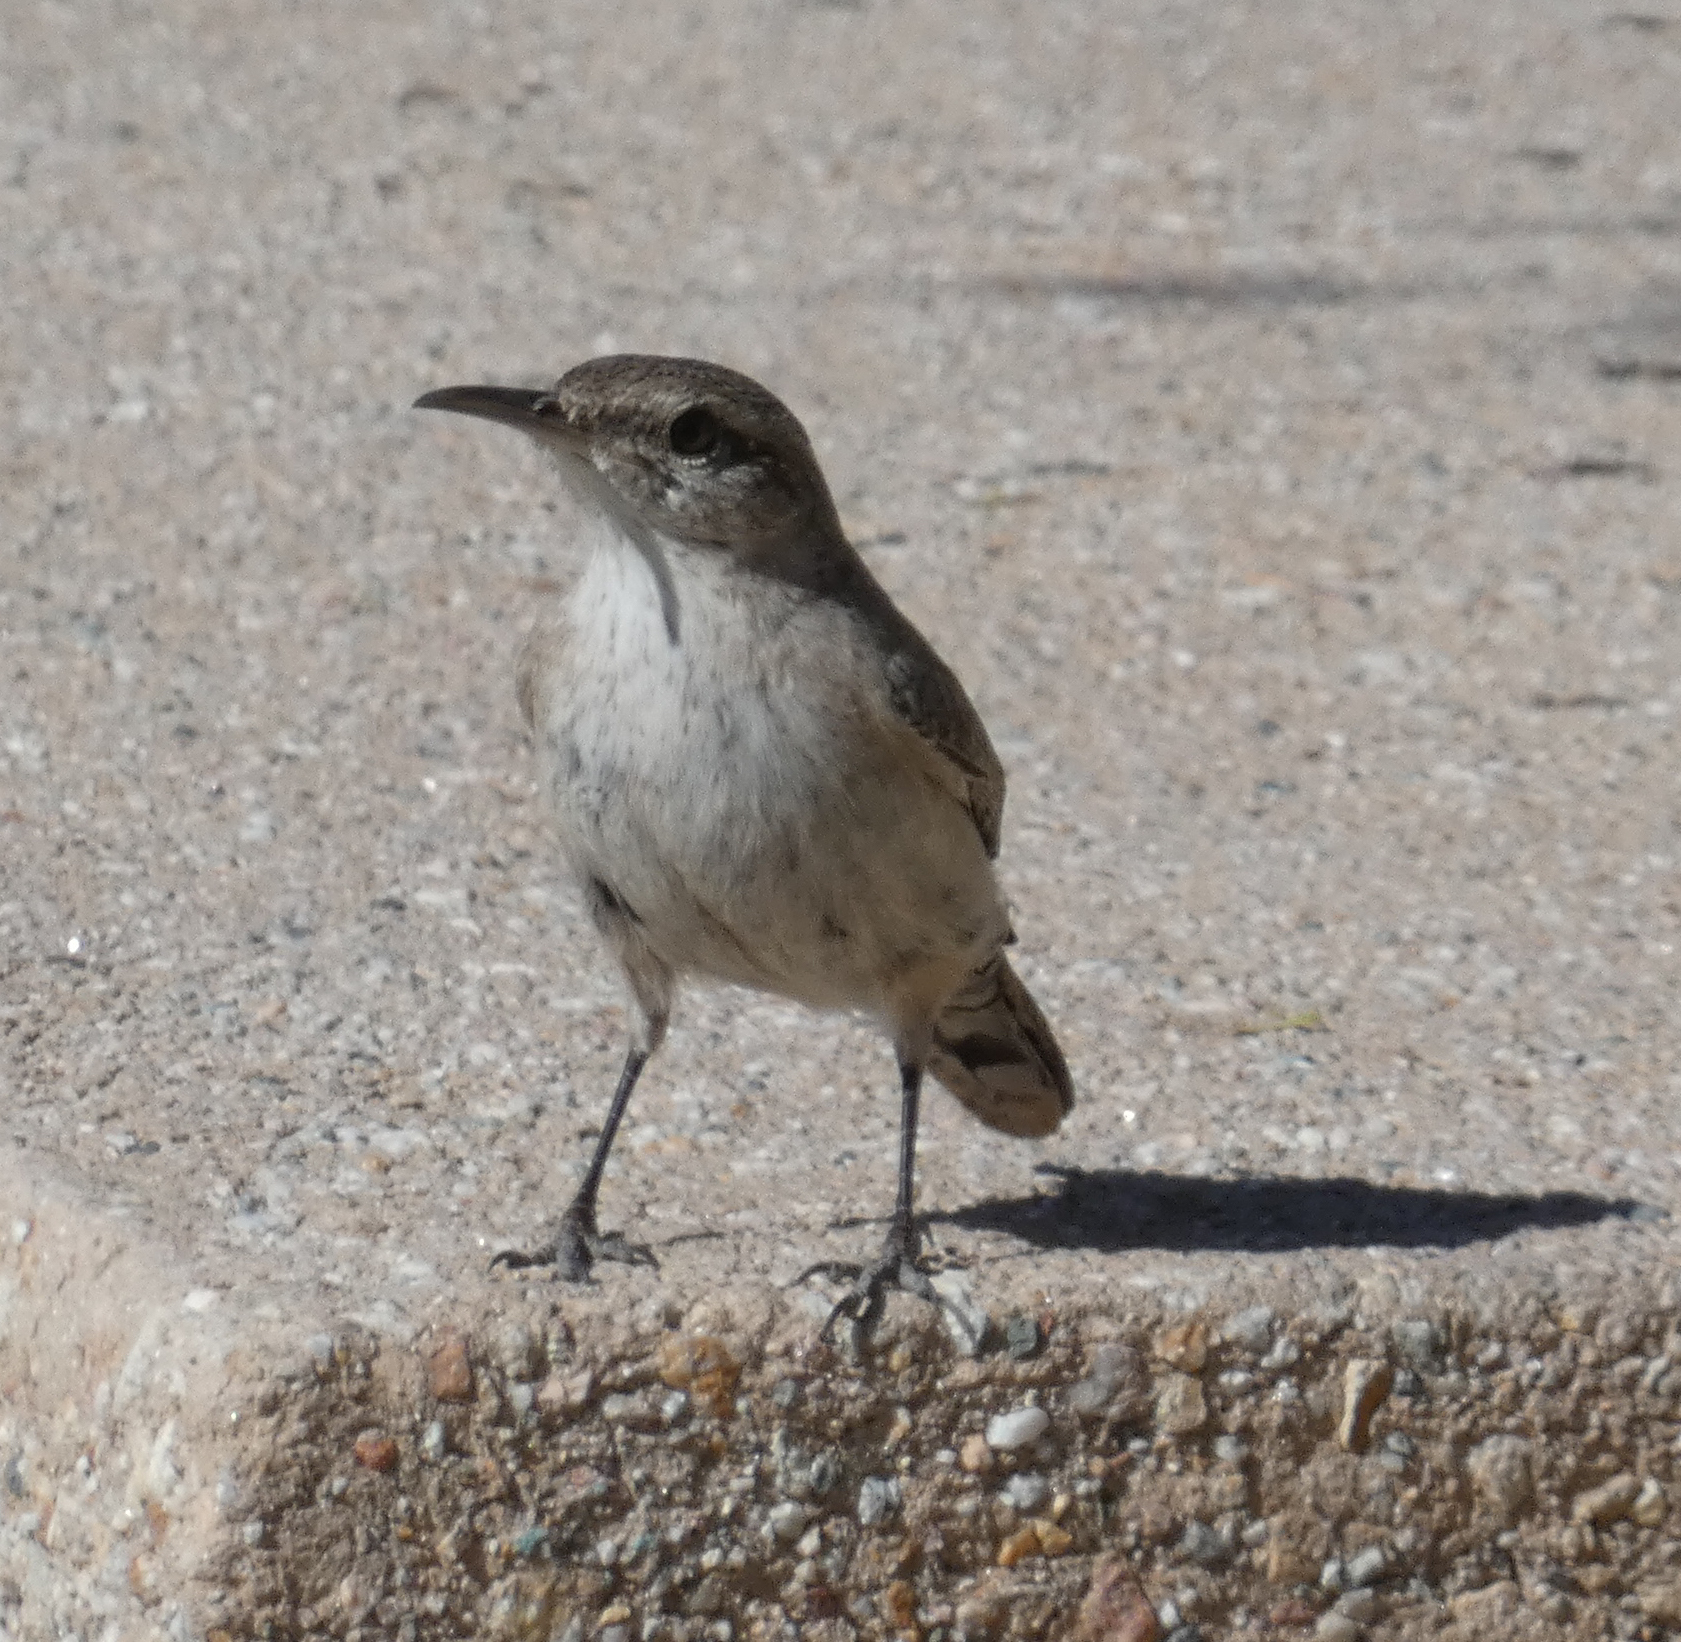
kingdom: Animalia
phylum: Chordata
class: Aves
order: Passeriformes
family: Troglodytidae
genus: Salpinctes
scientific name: Salpinctes obsoletus
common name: Rock wren
